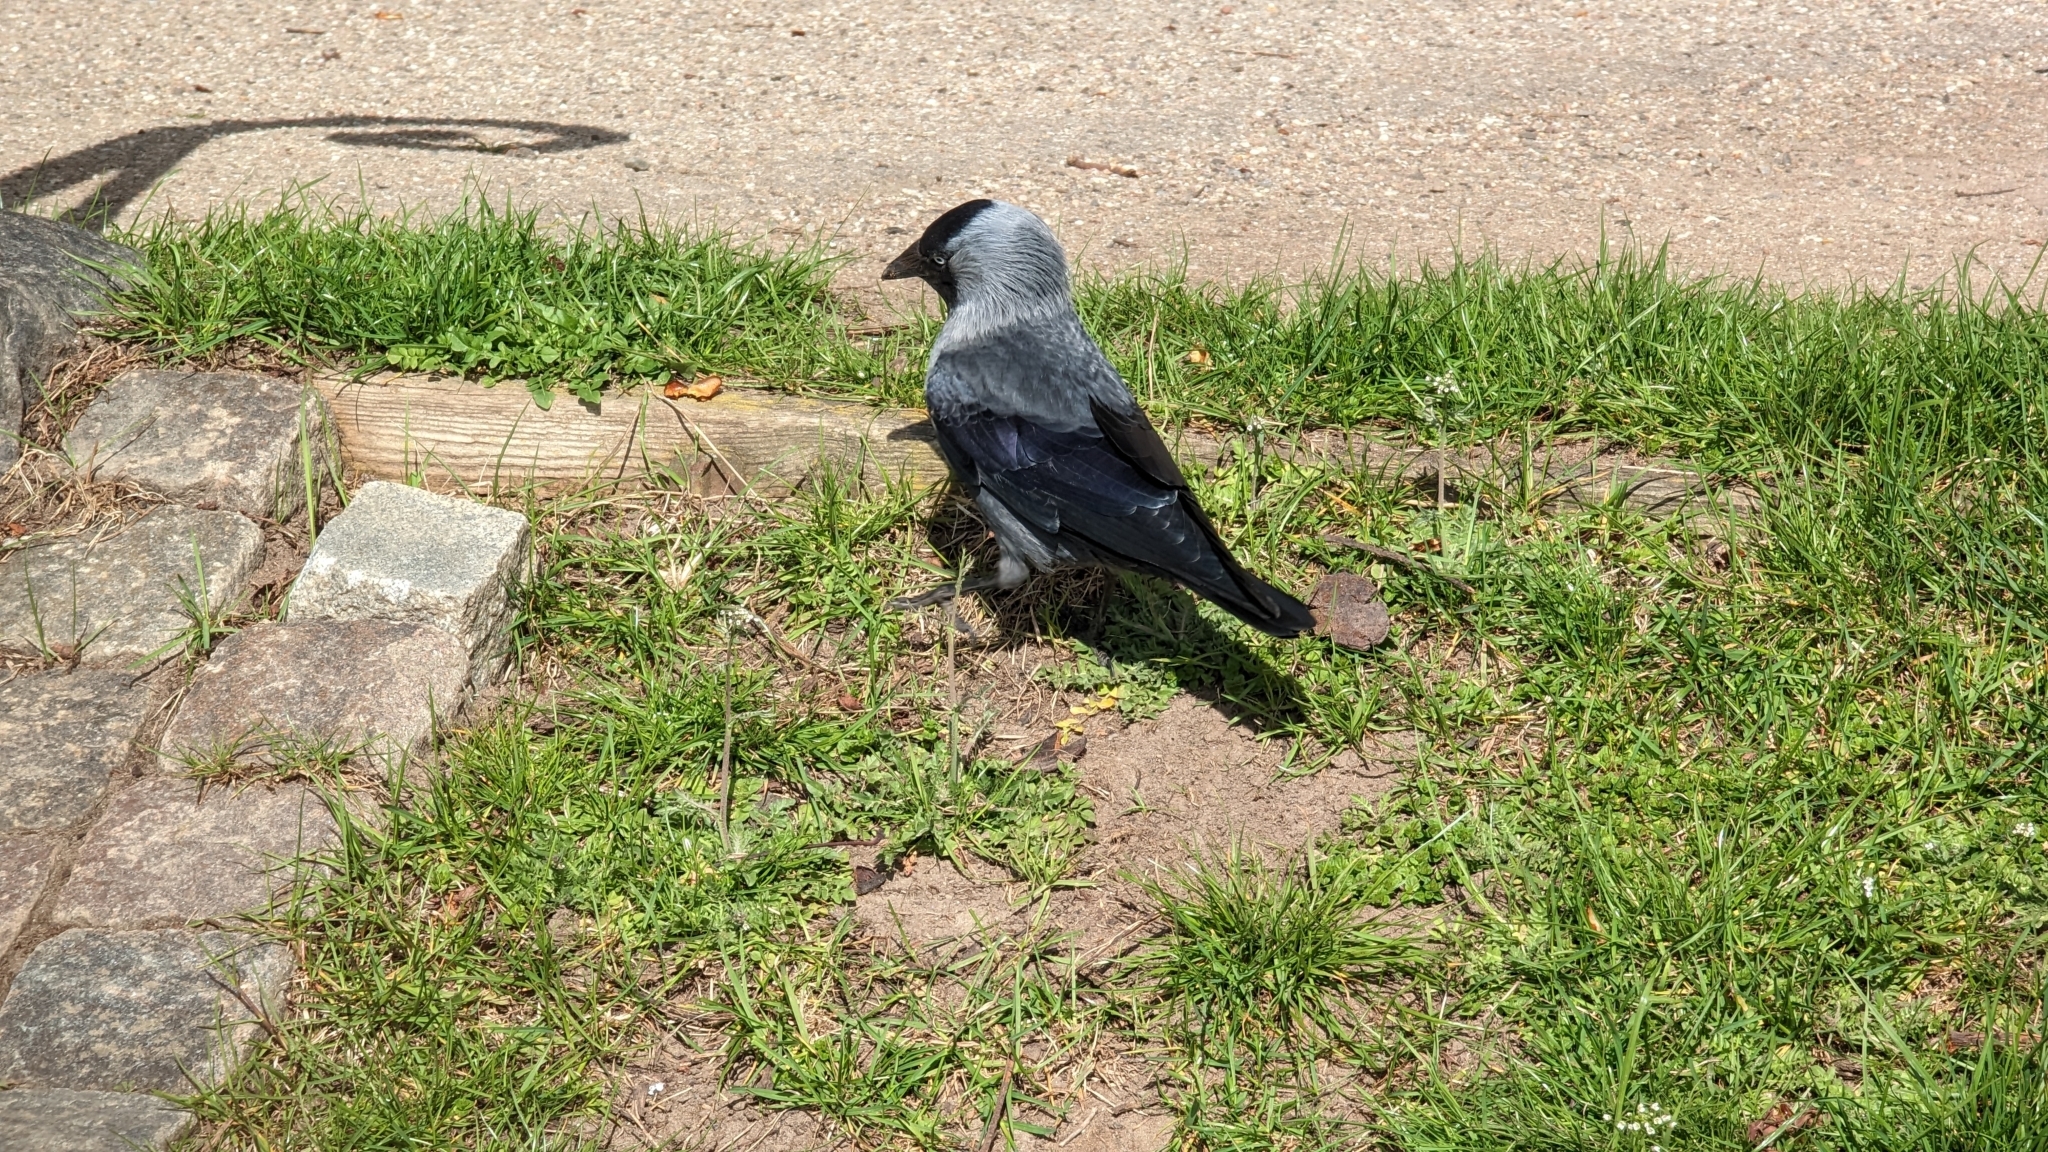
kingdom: Animalia
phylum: Chordata
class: Aves
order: Passeriformes
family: Corvidae
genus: Coloeus
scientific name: Coloeus monedula
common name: Western jackdaw
